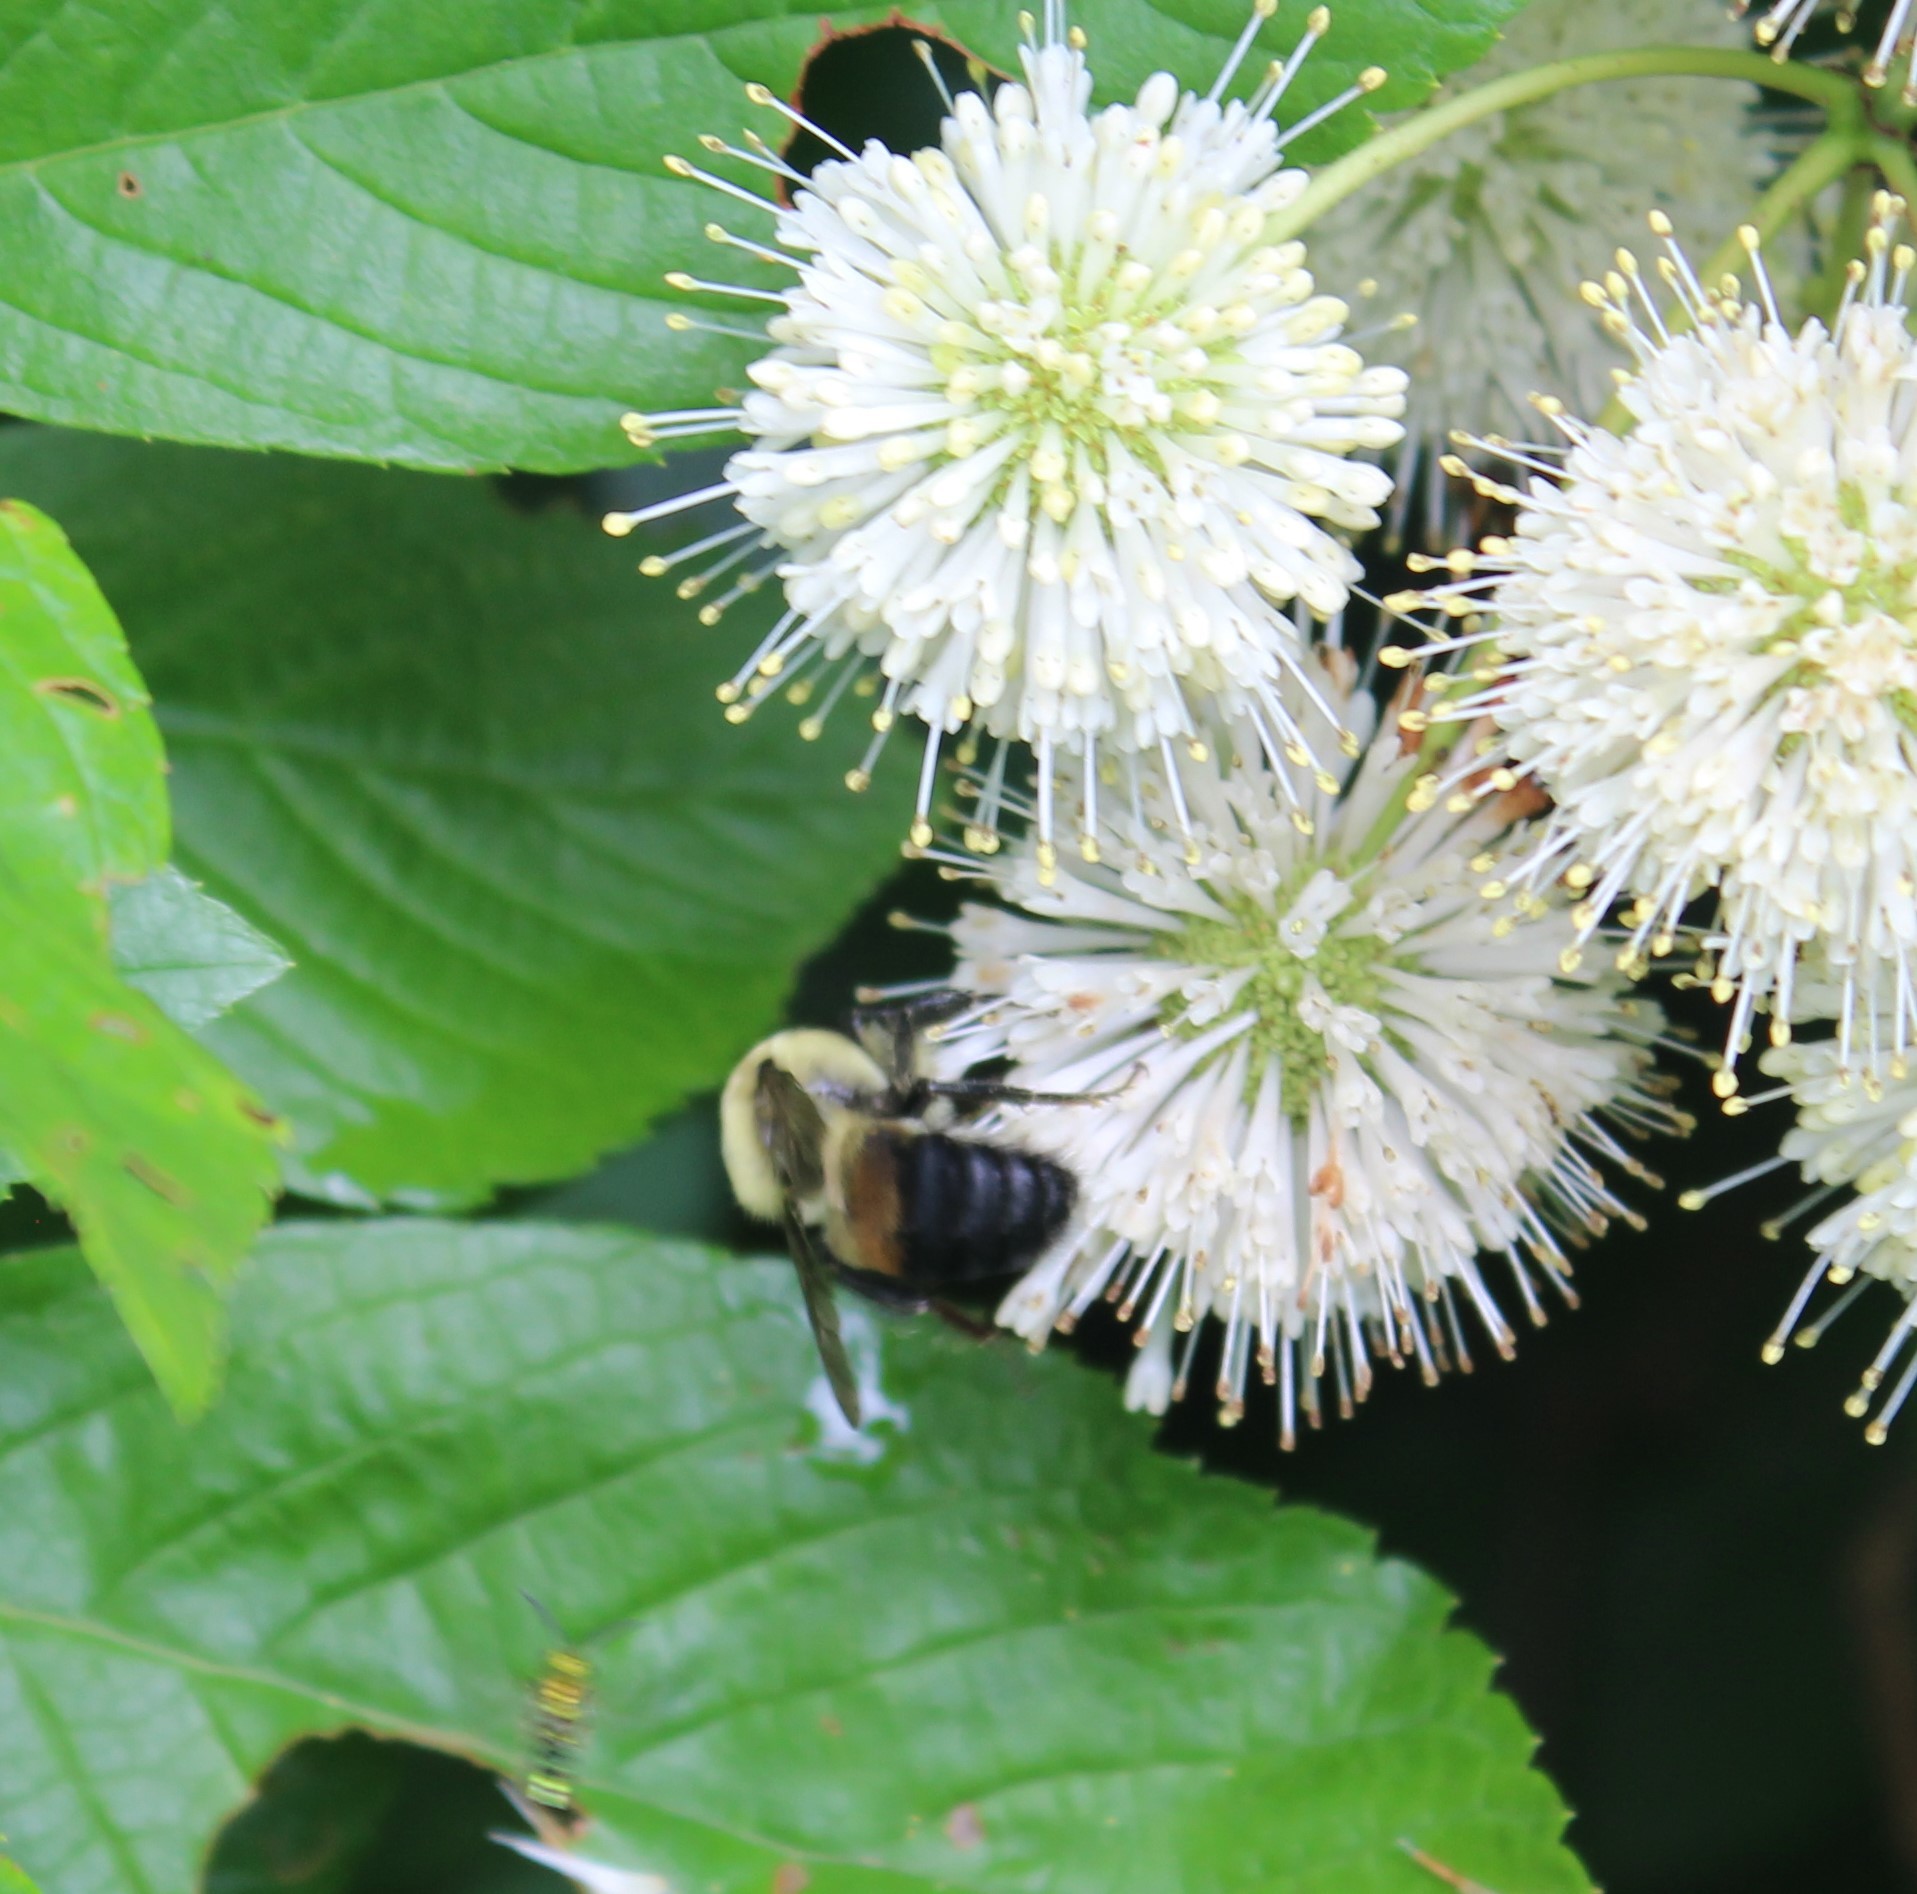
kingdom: Animalia
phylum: Arthropoda
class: Insecta
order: Hymenoptera
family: Apidae
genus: Bombus
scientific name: Bombus griseocollis
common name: Brown-belted bumble bee
